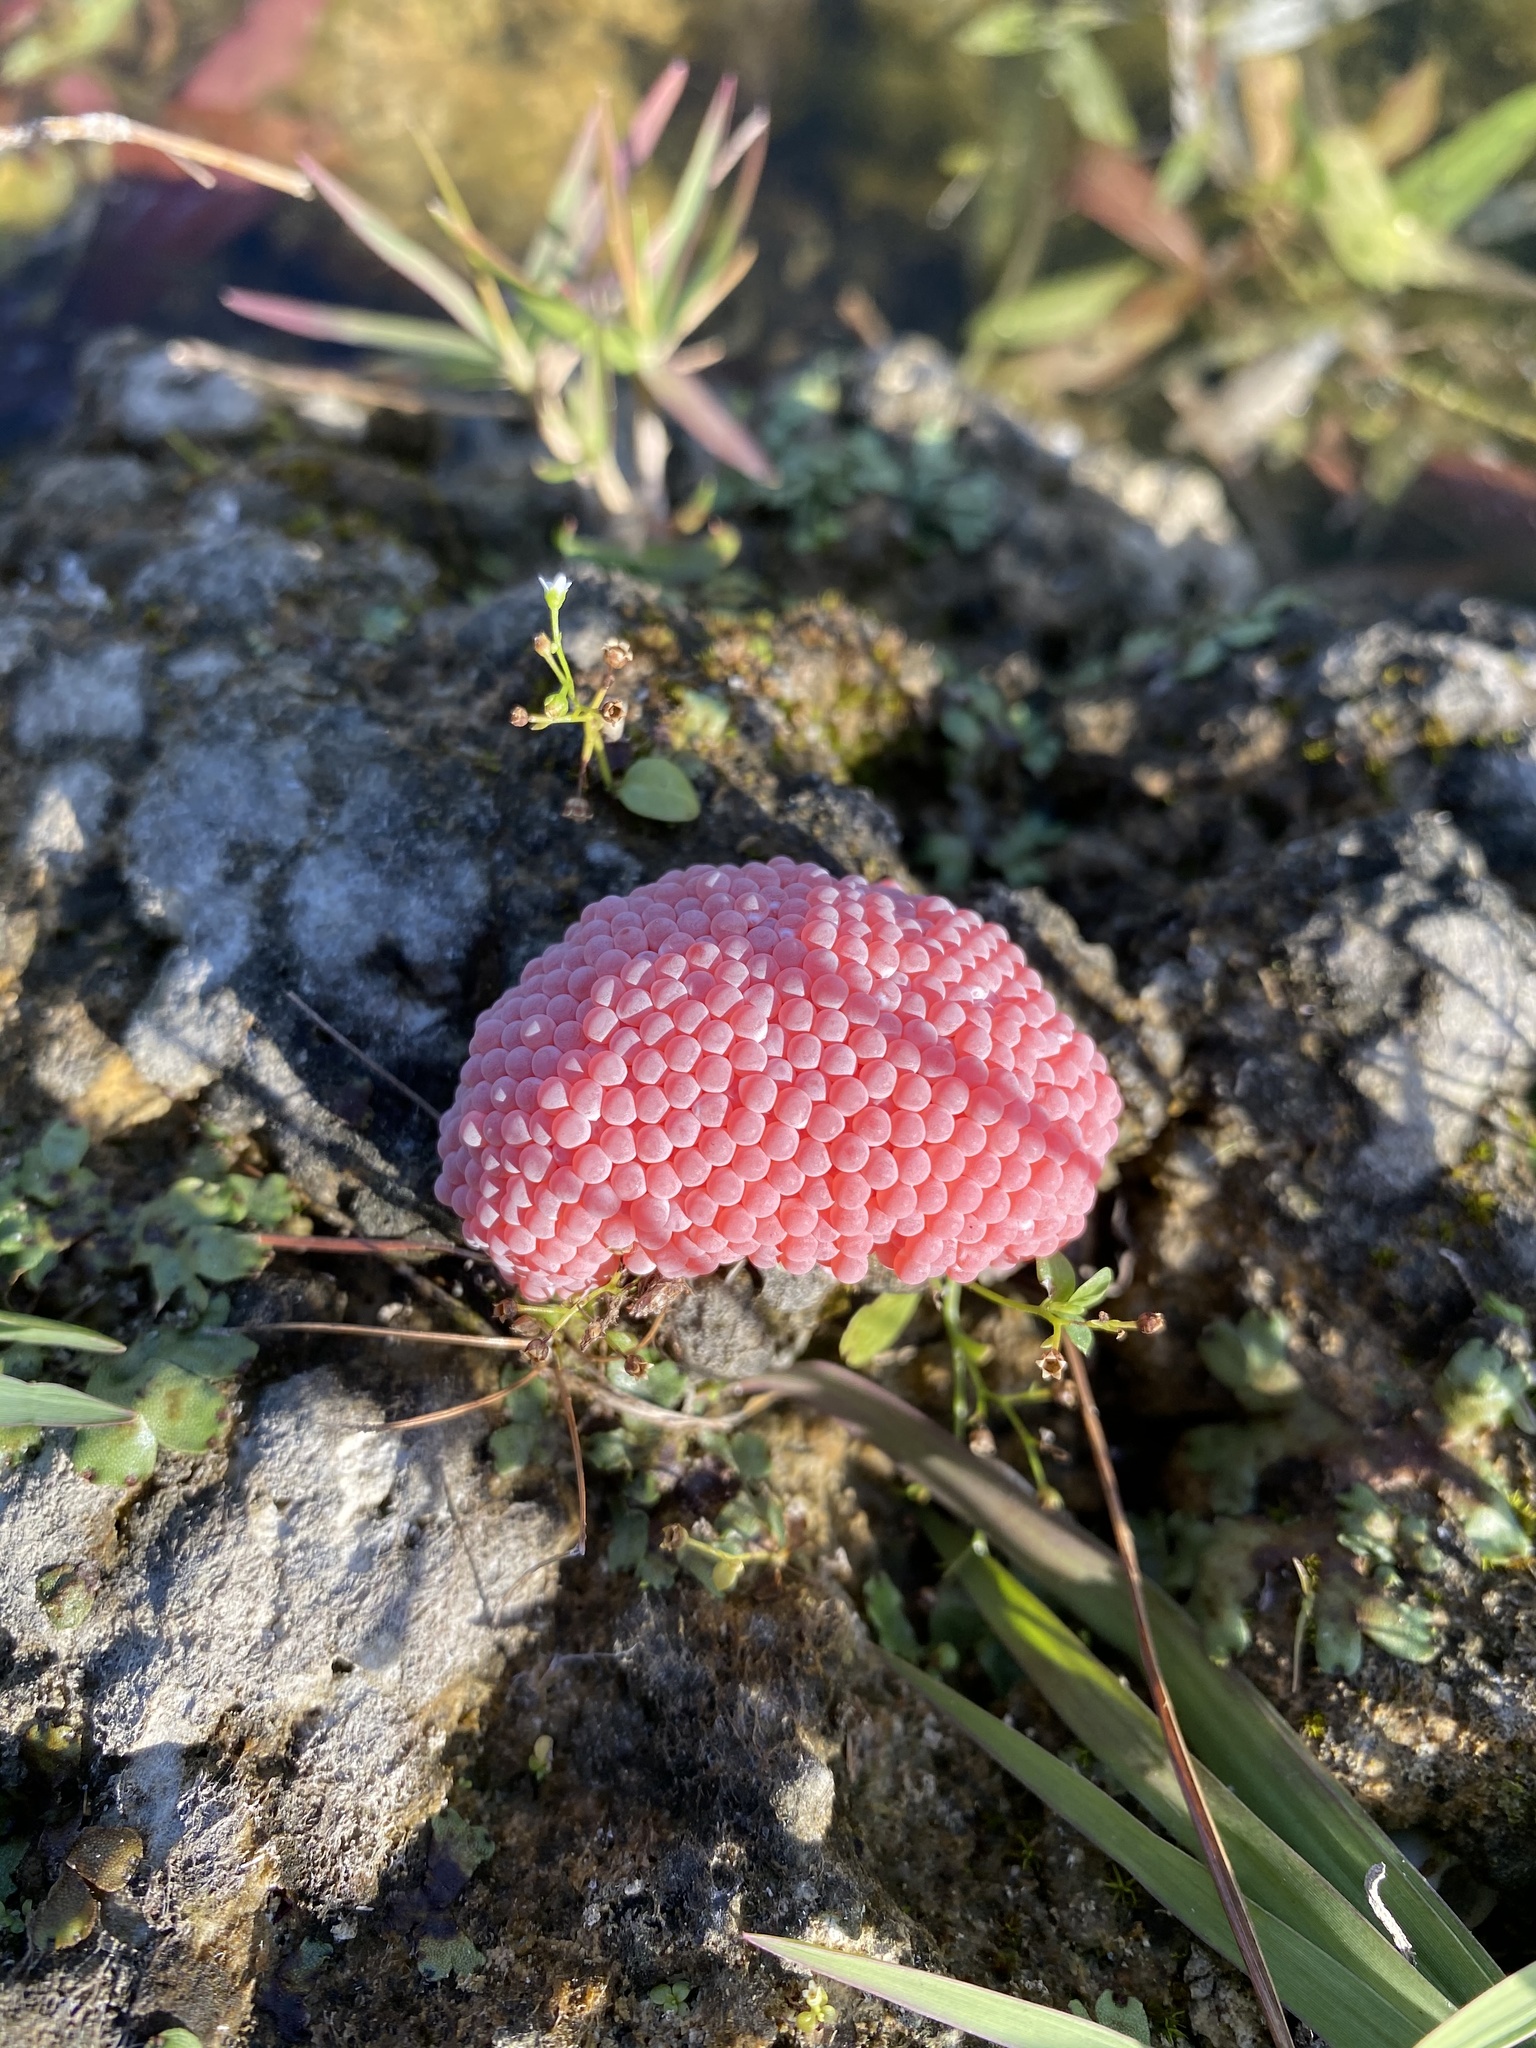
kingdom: Animalia
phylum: Mollusca
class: Gastropoda
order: Architaenioglossa
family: Ampullariidae
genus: Pomacea
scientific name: Pomacea maculata
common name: Giant applesnail
